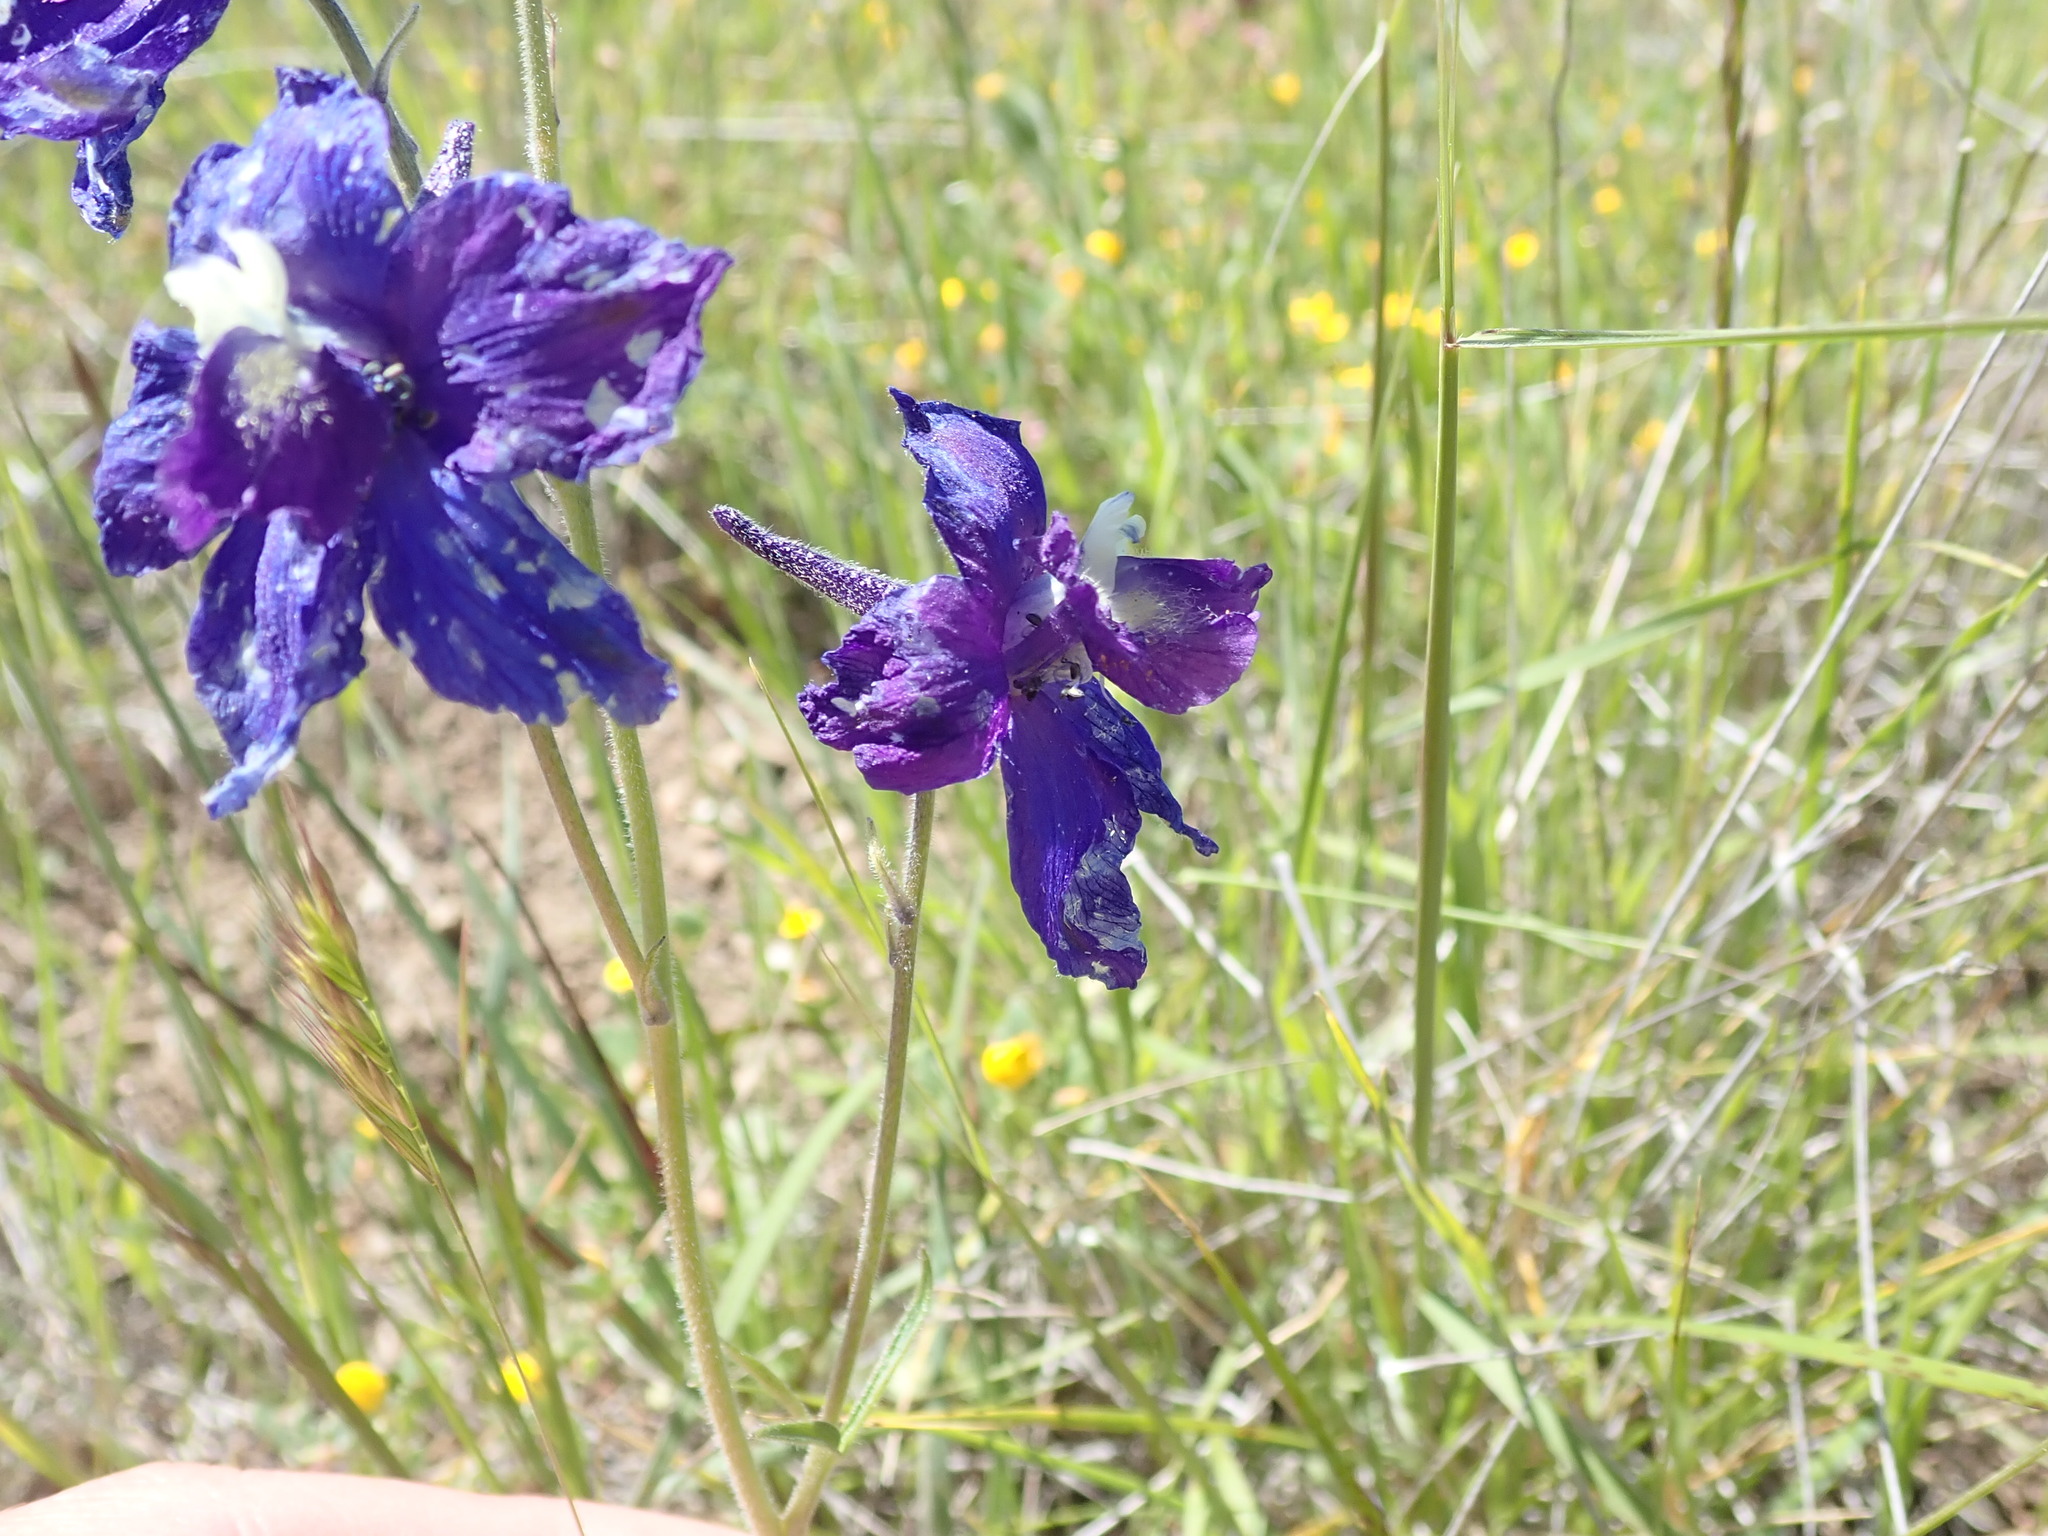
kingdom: Plantae
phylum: Tracheophyta
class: Magnoliopsida
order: Ranunculales
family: Ranunculaceae
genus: Delphinium
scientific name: Delphinium variegatum
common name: Royal larkspur
